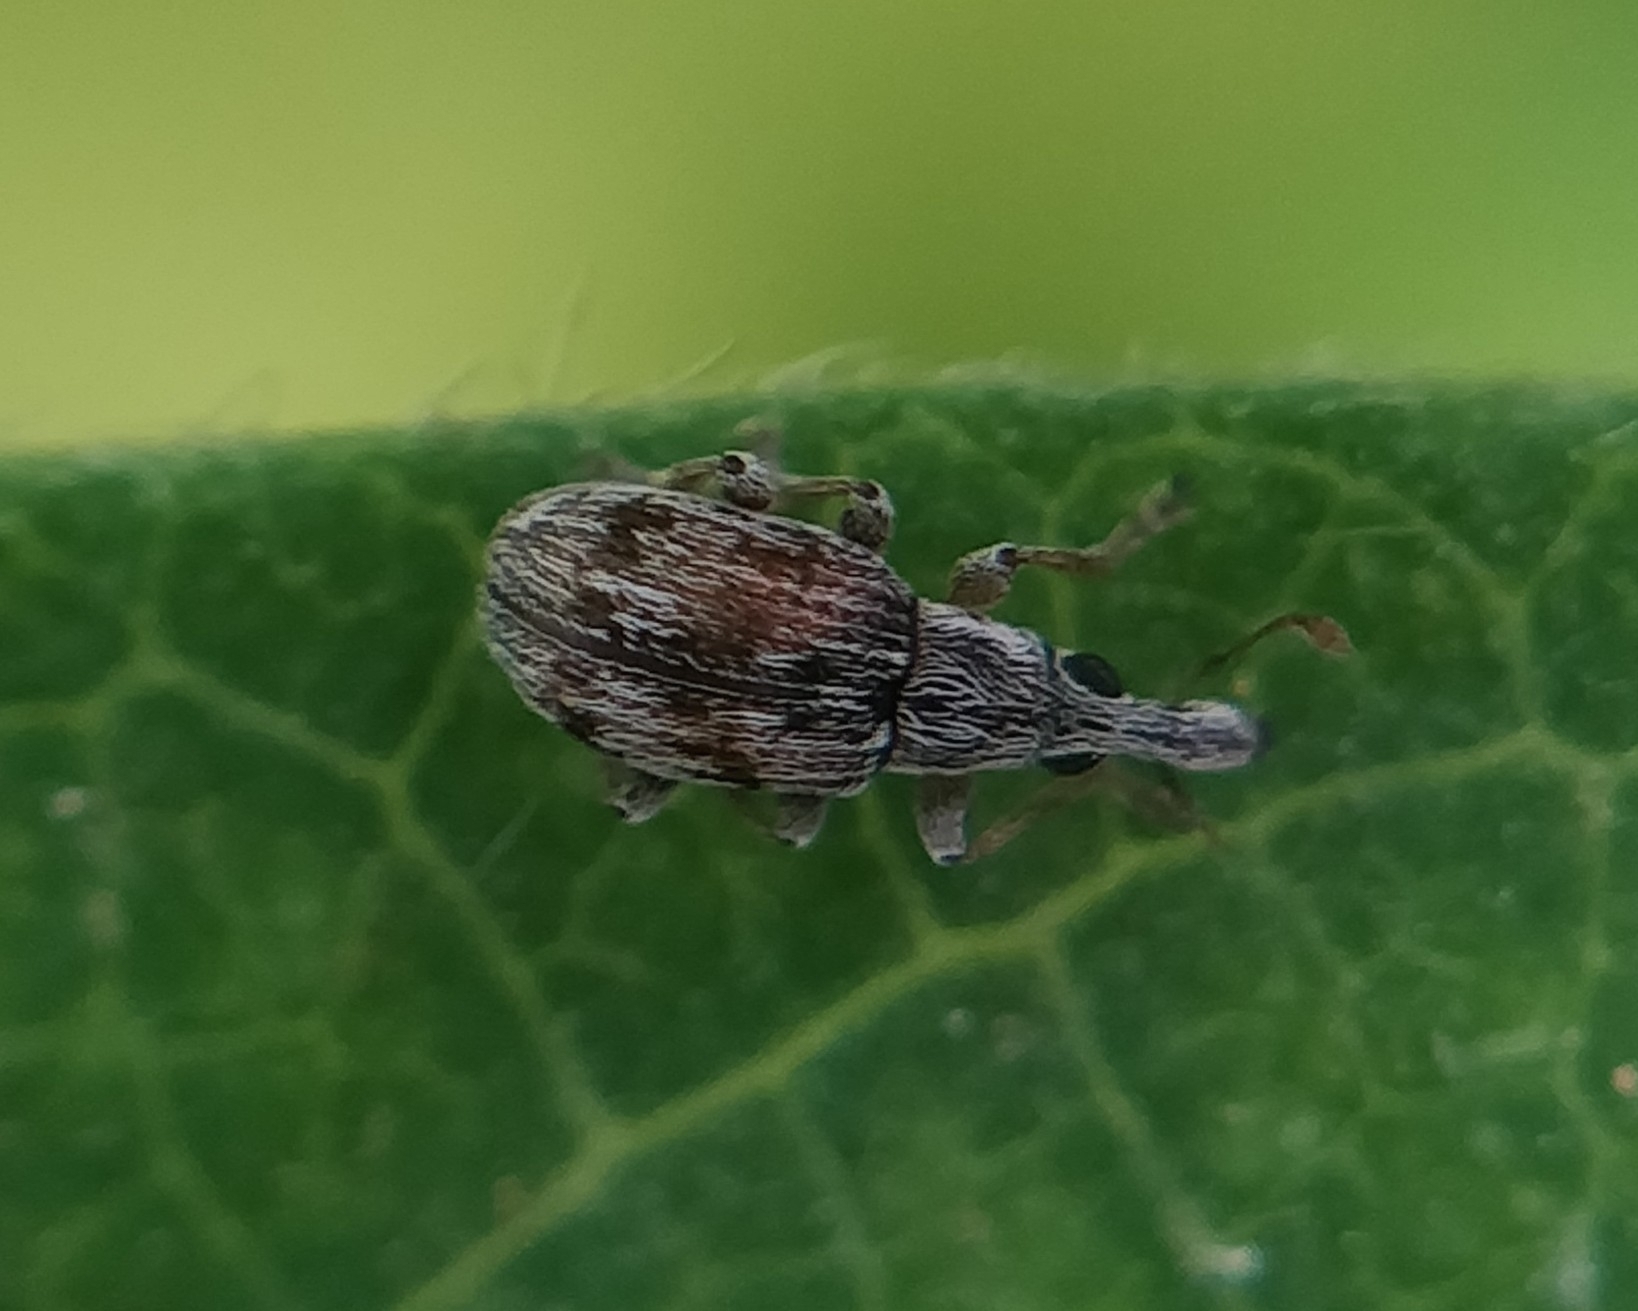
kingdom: Animalia
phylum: Arthropoda
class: Insecta
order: Coleoptera
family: Apionidae
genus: Taeniapion
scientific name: Taeniapion delicatulum
